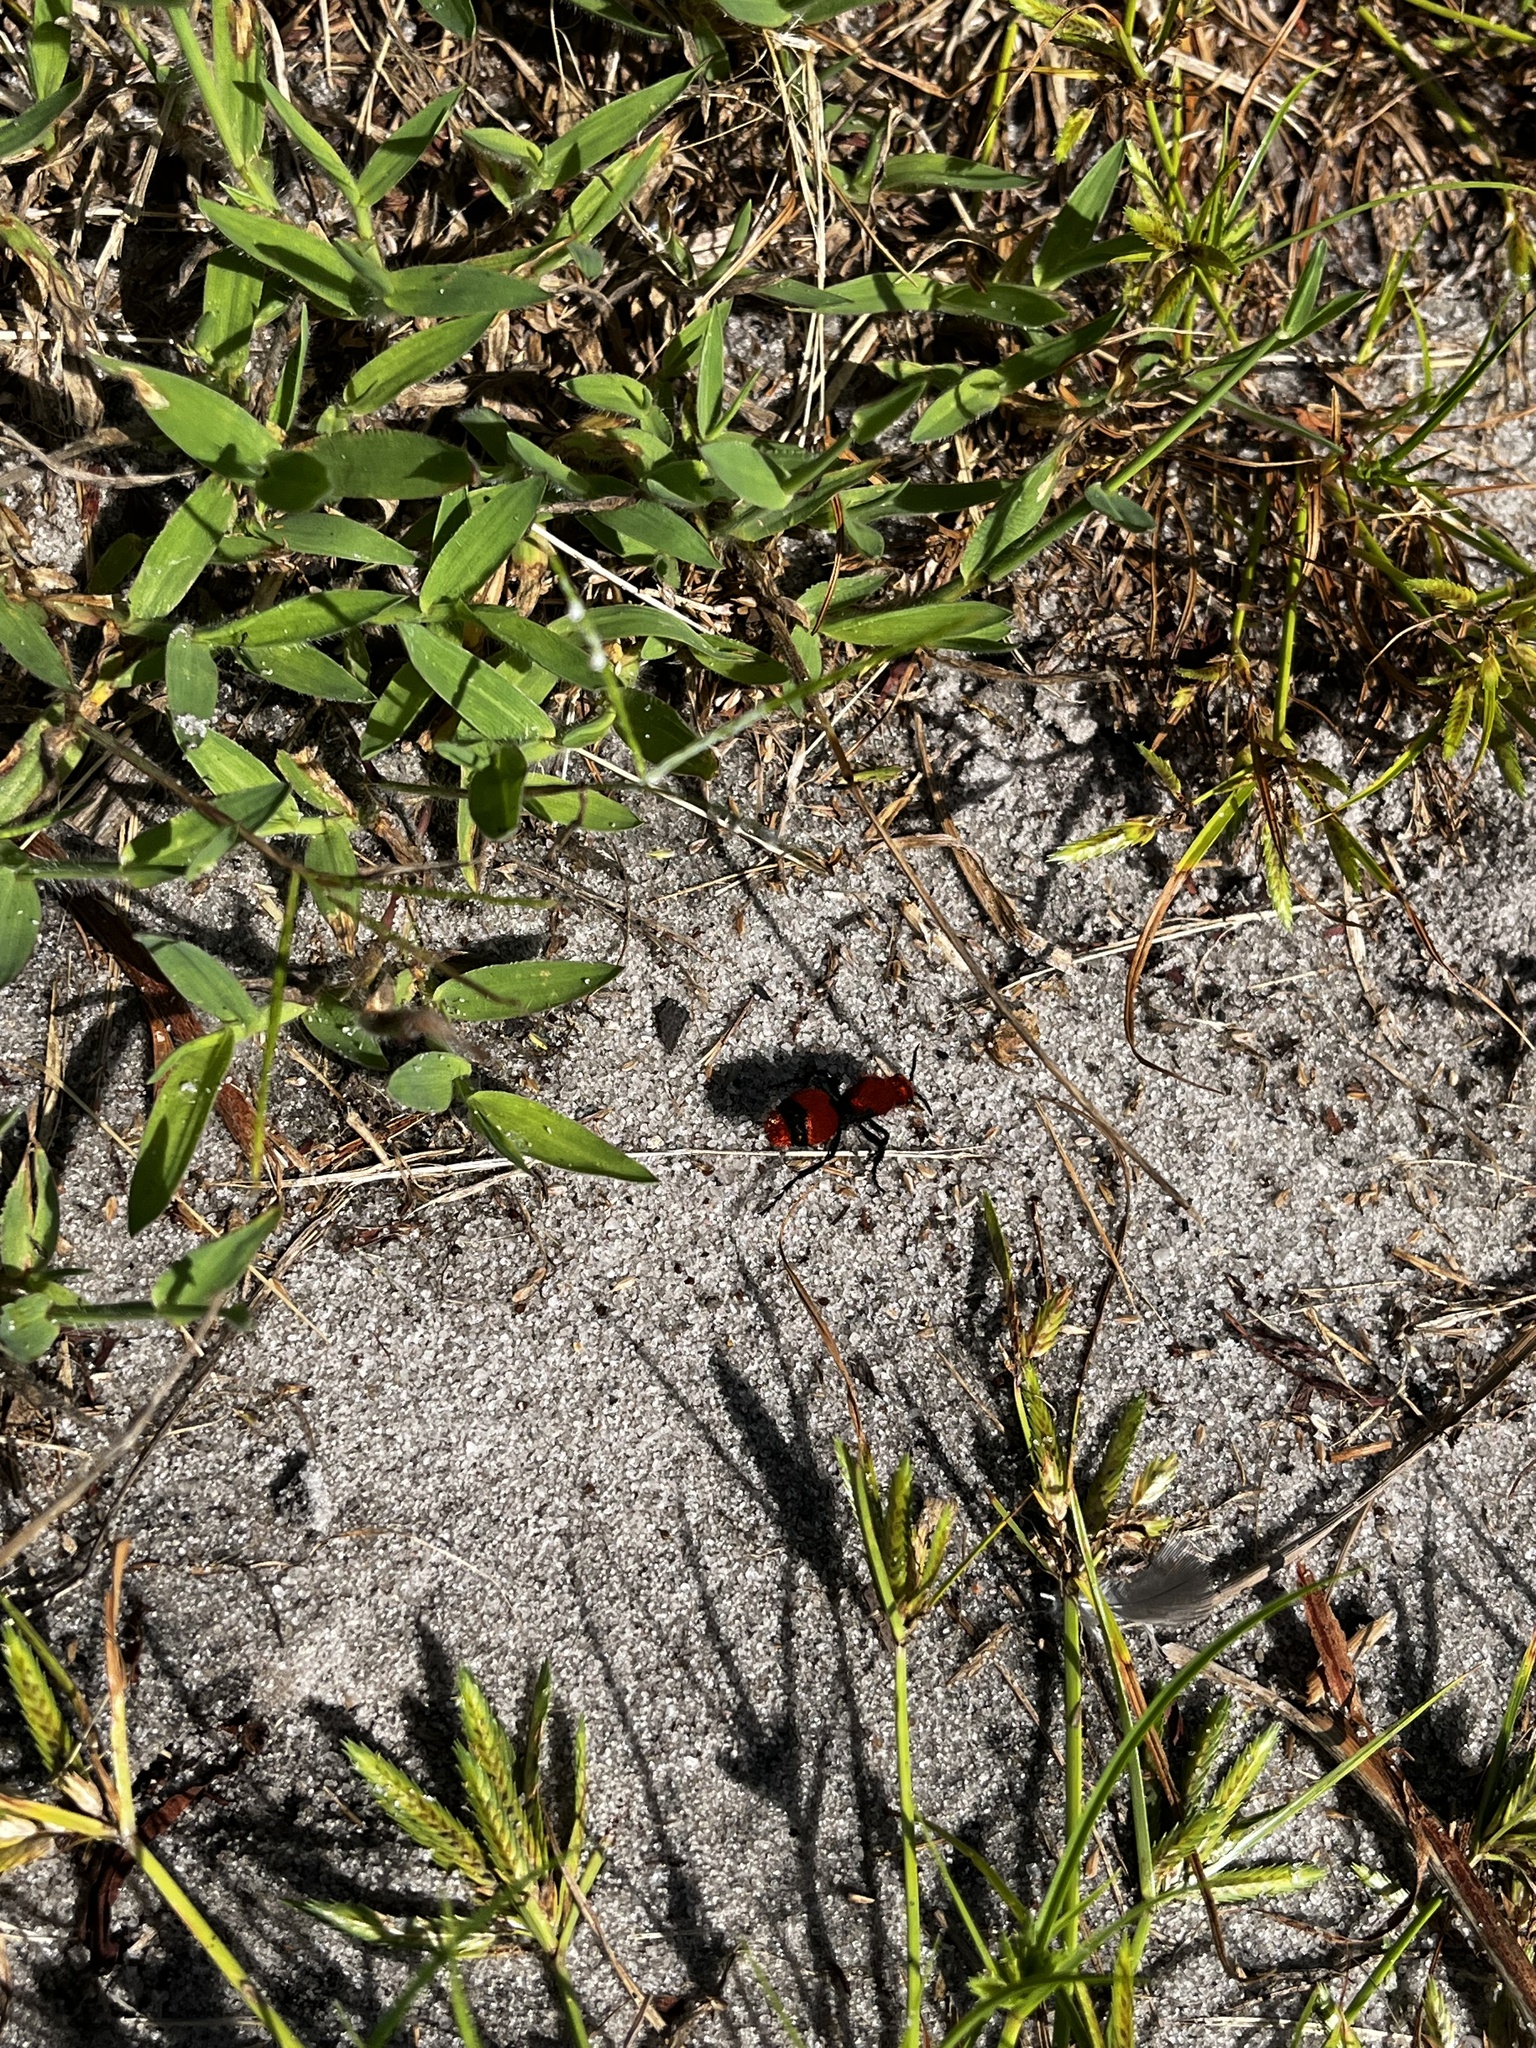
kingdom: Animalia
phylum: Arthropoda
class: Insecta
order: Hymenoptera
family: Mutillidae
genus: Dasymutilla
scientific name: Dasymutilla occidentalis
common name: Common eastern velvet ant
